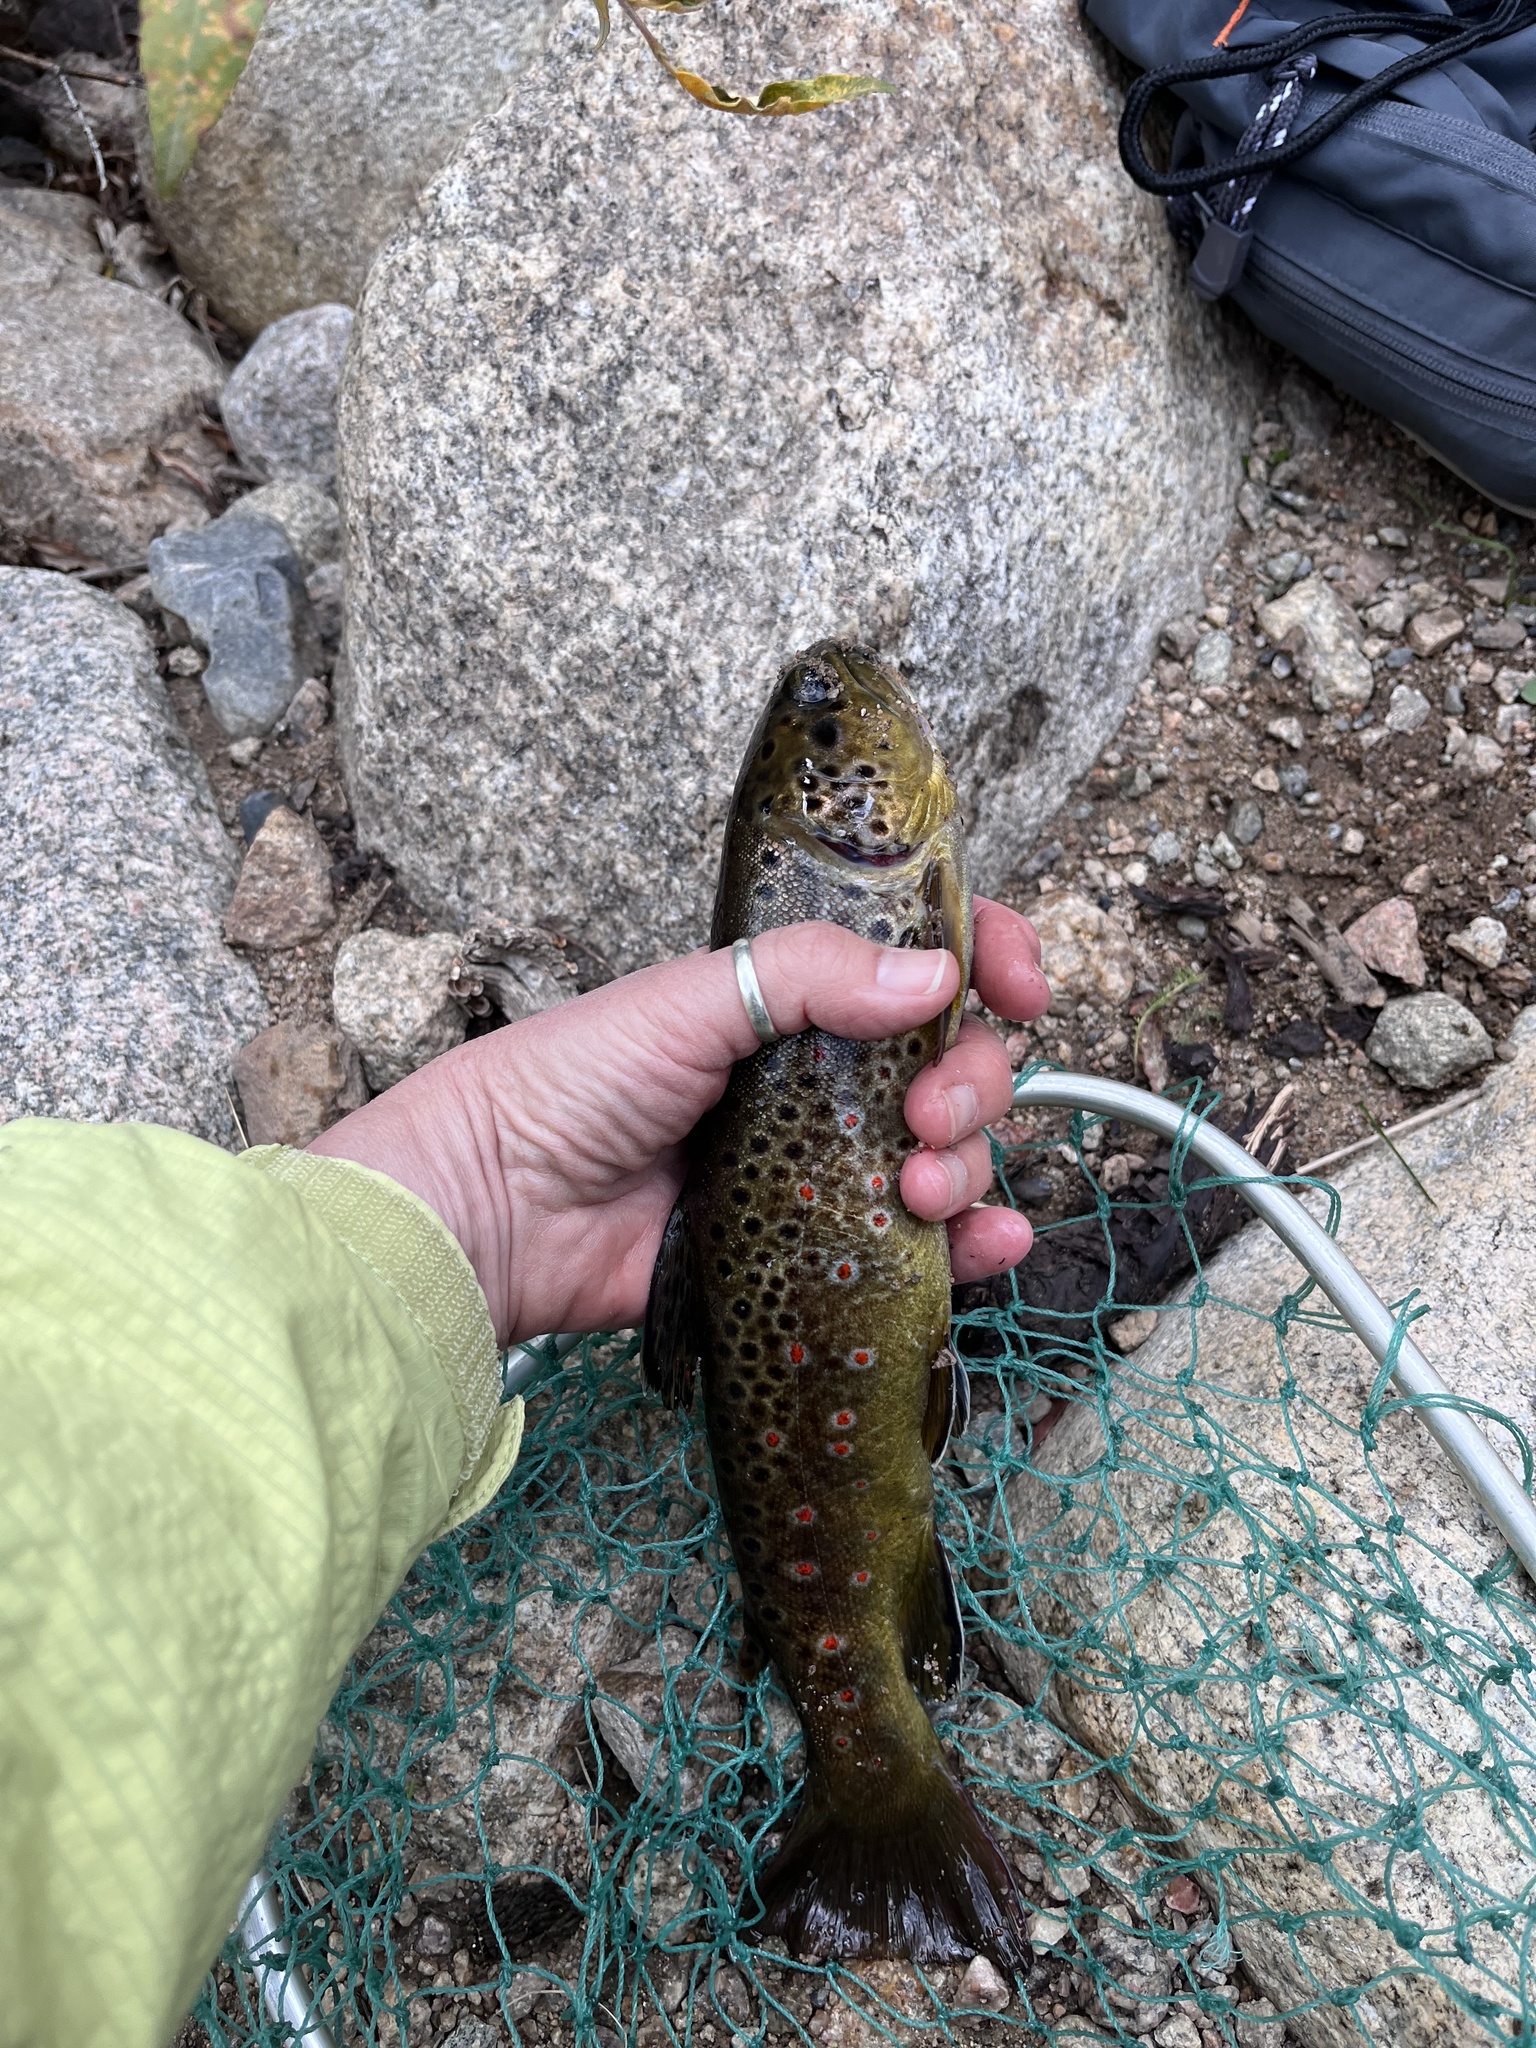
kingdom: Animalia
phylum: Chordata
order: Salmoniformes
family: Salmonidae
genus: Salmo
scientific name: Salmo trutta
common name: Brown trout
